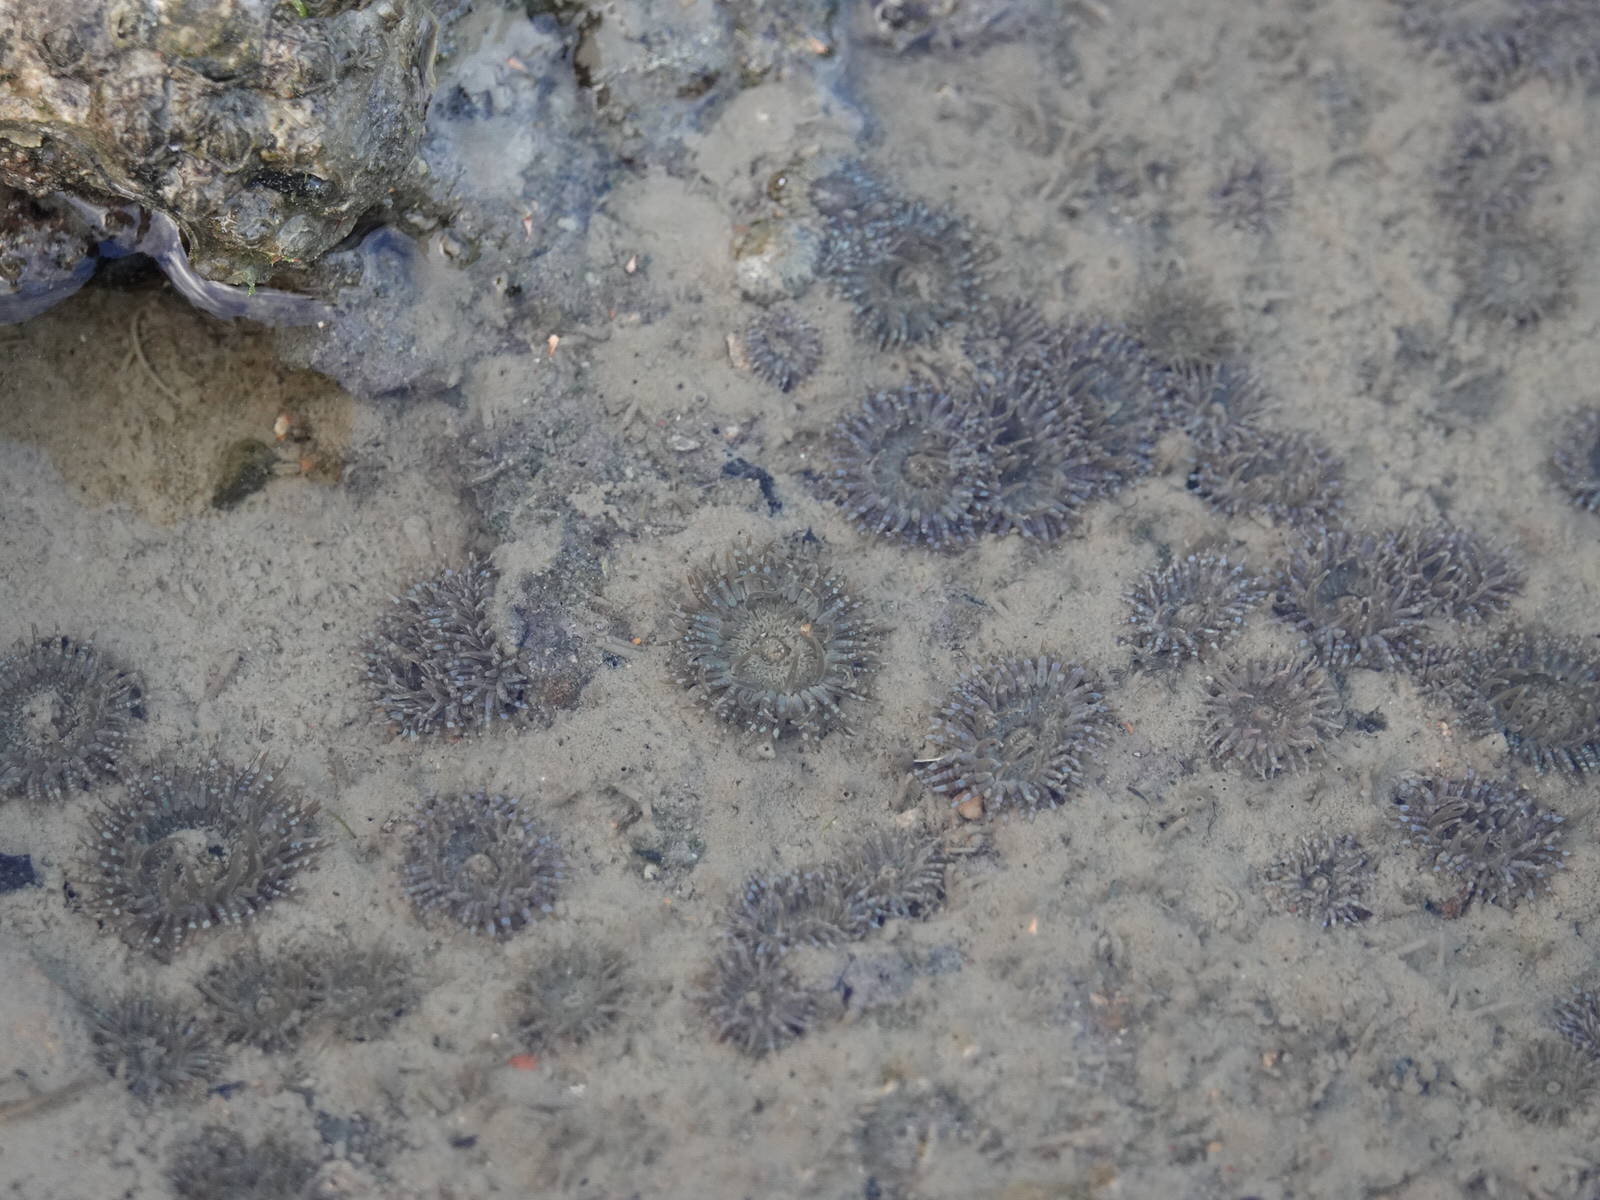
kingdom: Animalia
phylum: Cnidaria
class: Anthozoa
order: Actiniaria
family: Actiniidae
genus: Anthopleura
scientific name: Anthopleura hermaphroditica
